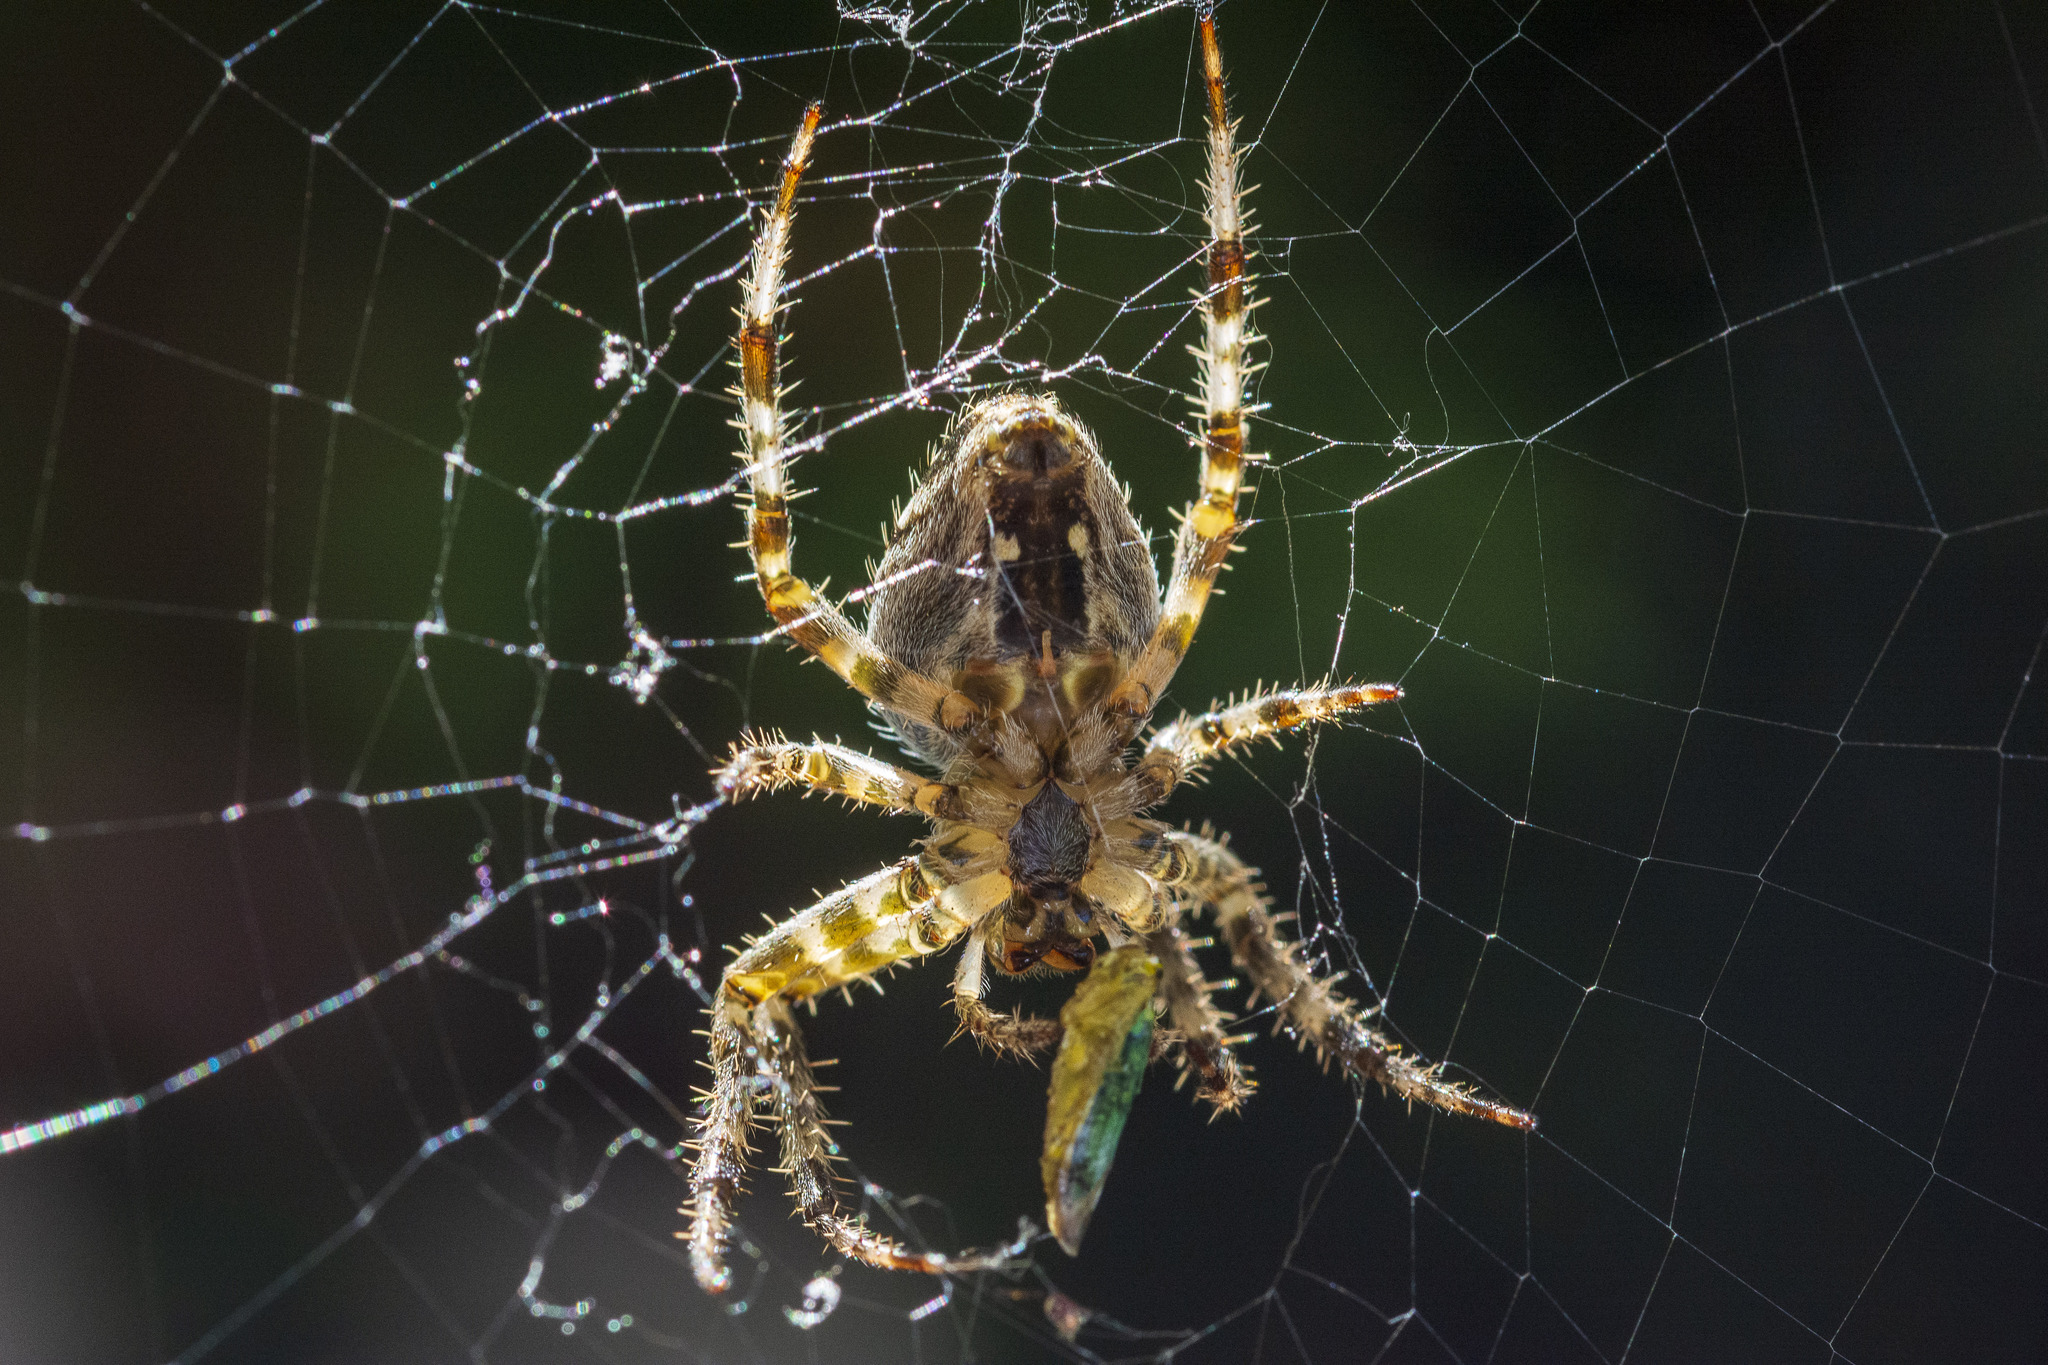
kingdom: Animalia
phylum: Arthropoda
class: Arachnida
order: Araneae
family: Araneidae
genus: Araneus
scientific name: Araneus diadematus
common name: Cross orbweaver
